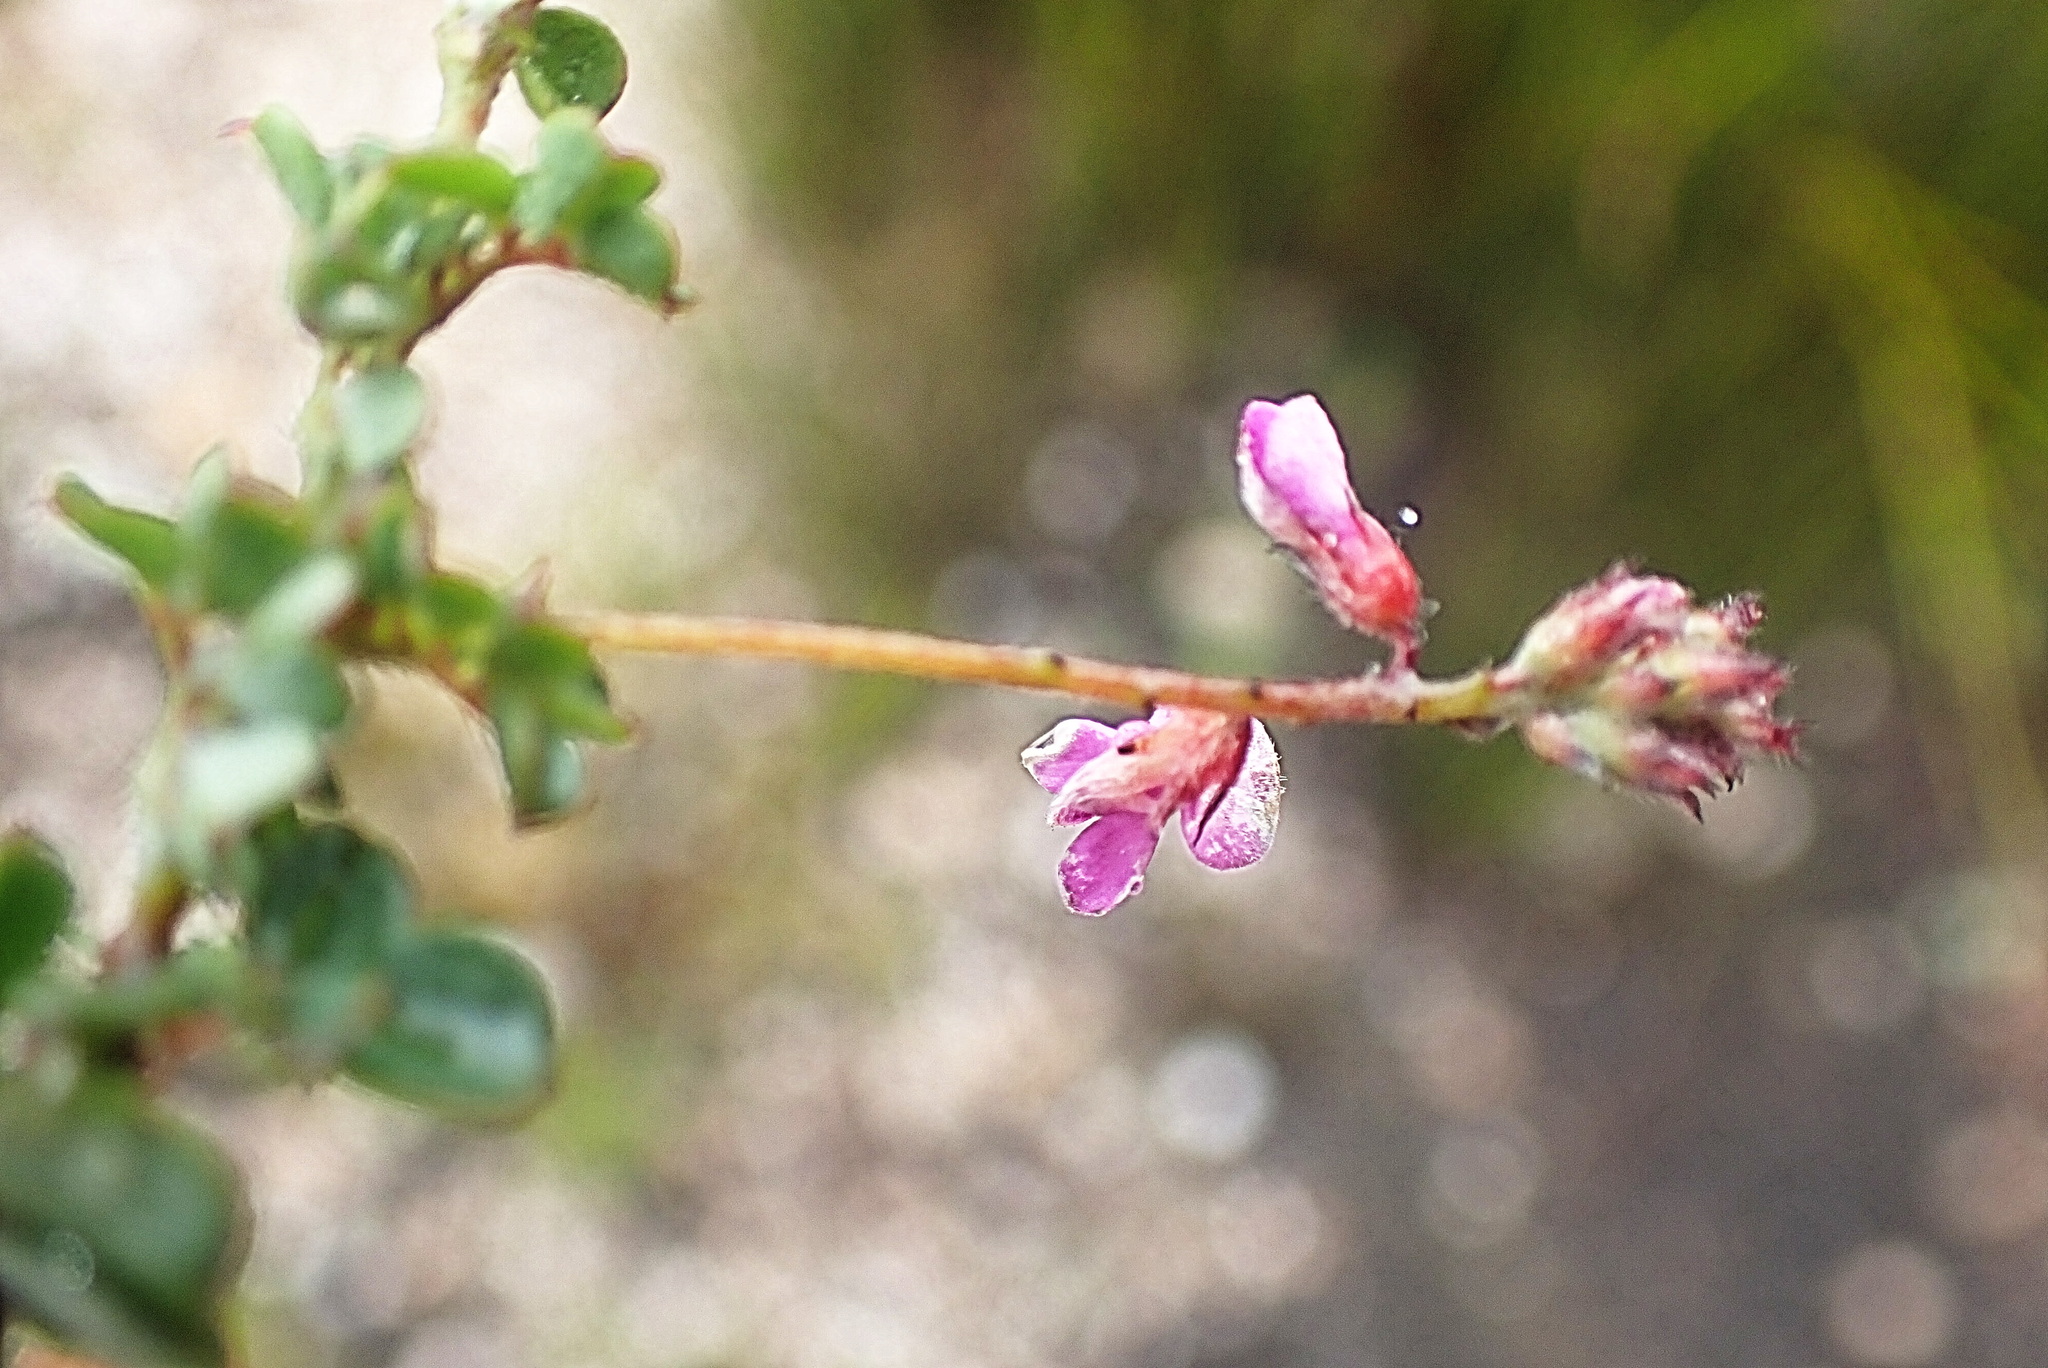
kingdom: Plantae
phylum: Tracheophyta
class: Magnoliopsida
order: Fabales
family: Fabaceae
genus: Indigofera
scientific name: Indigofera alopecuroides
